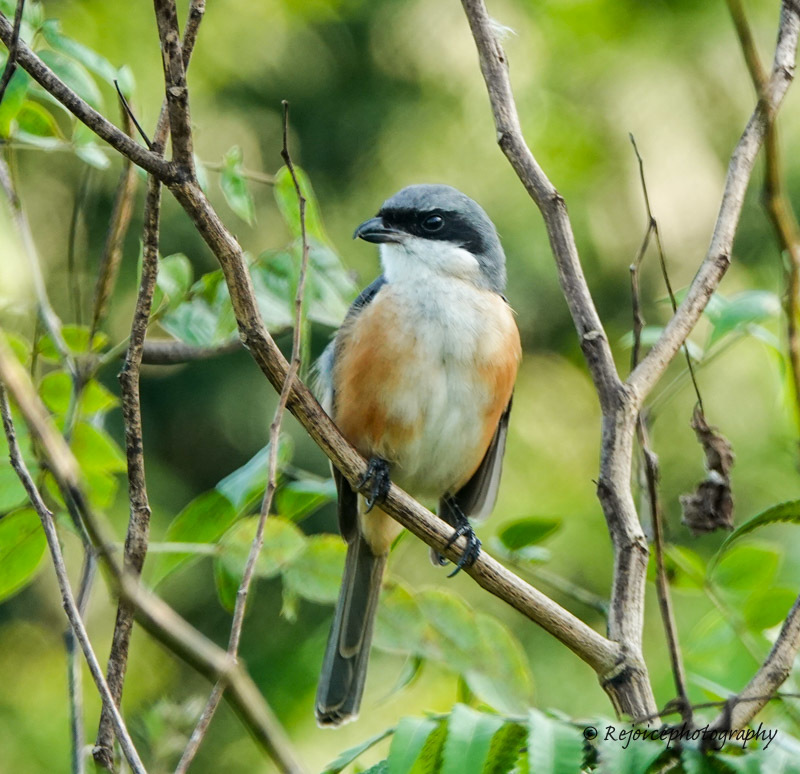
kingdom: Animalia
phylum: Chordata
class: Aves
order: Passeriformes
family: Laniidae
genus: Lanius
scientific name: Lanius tephronotus
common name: Grey-backed shrike
